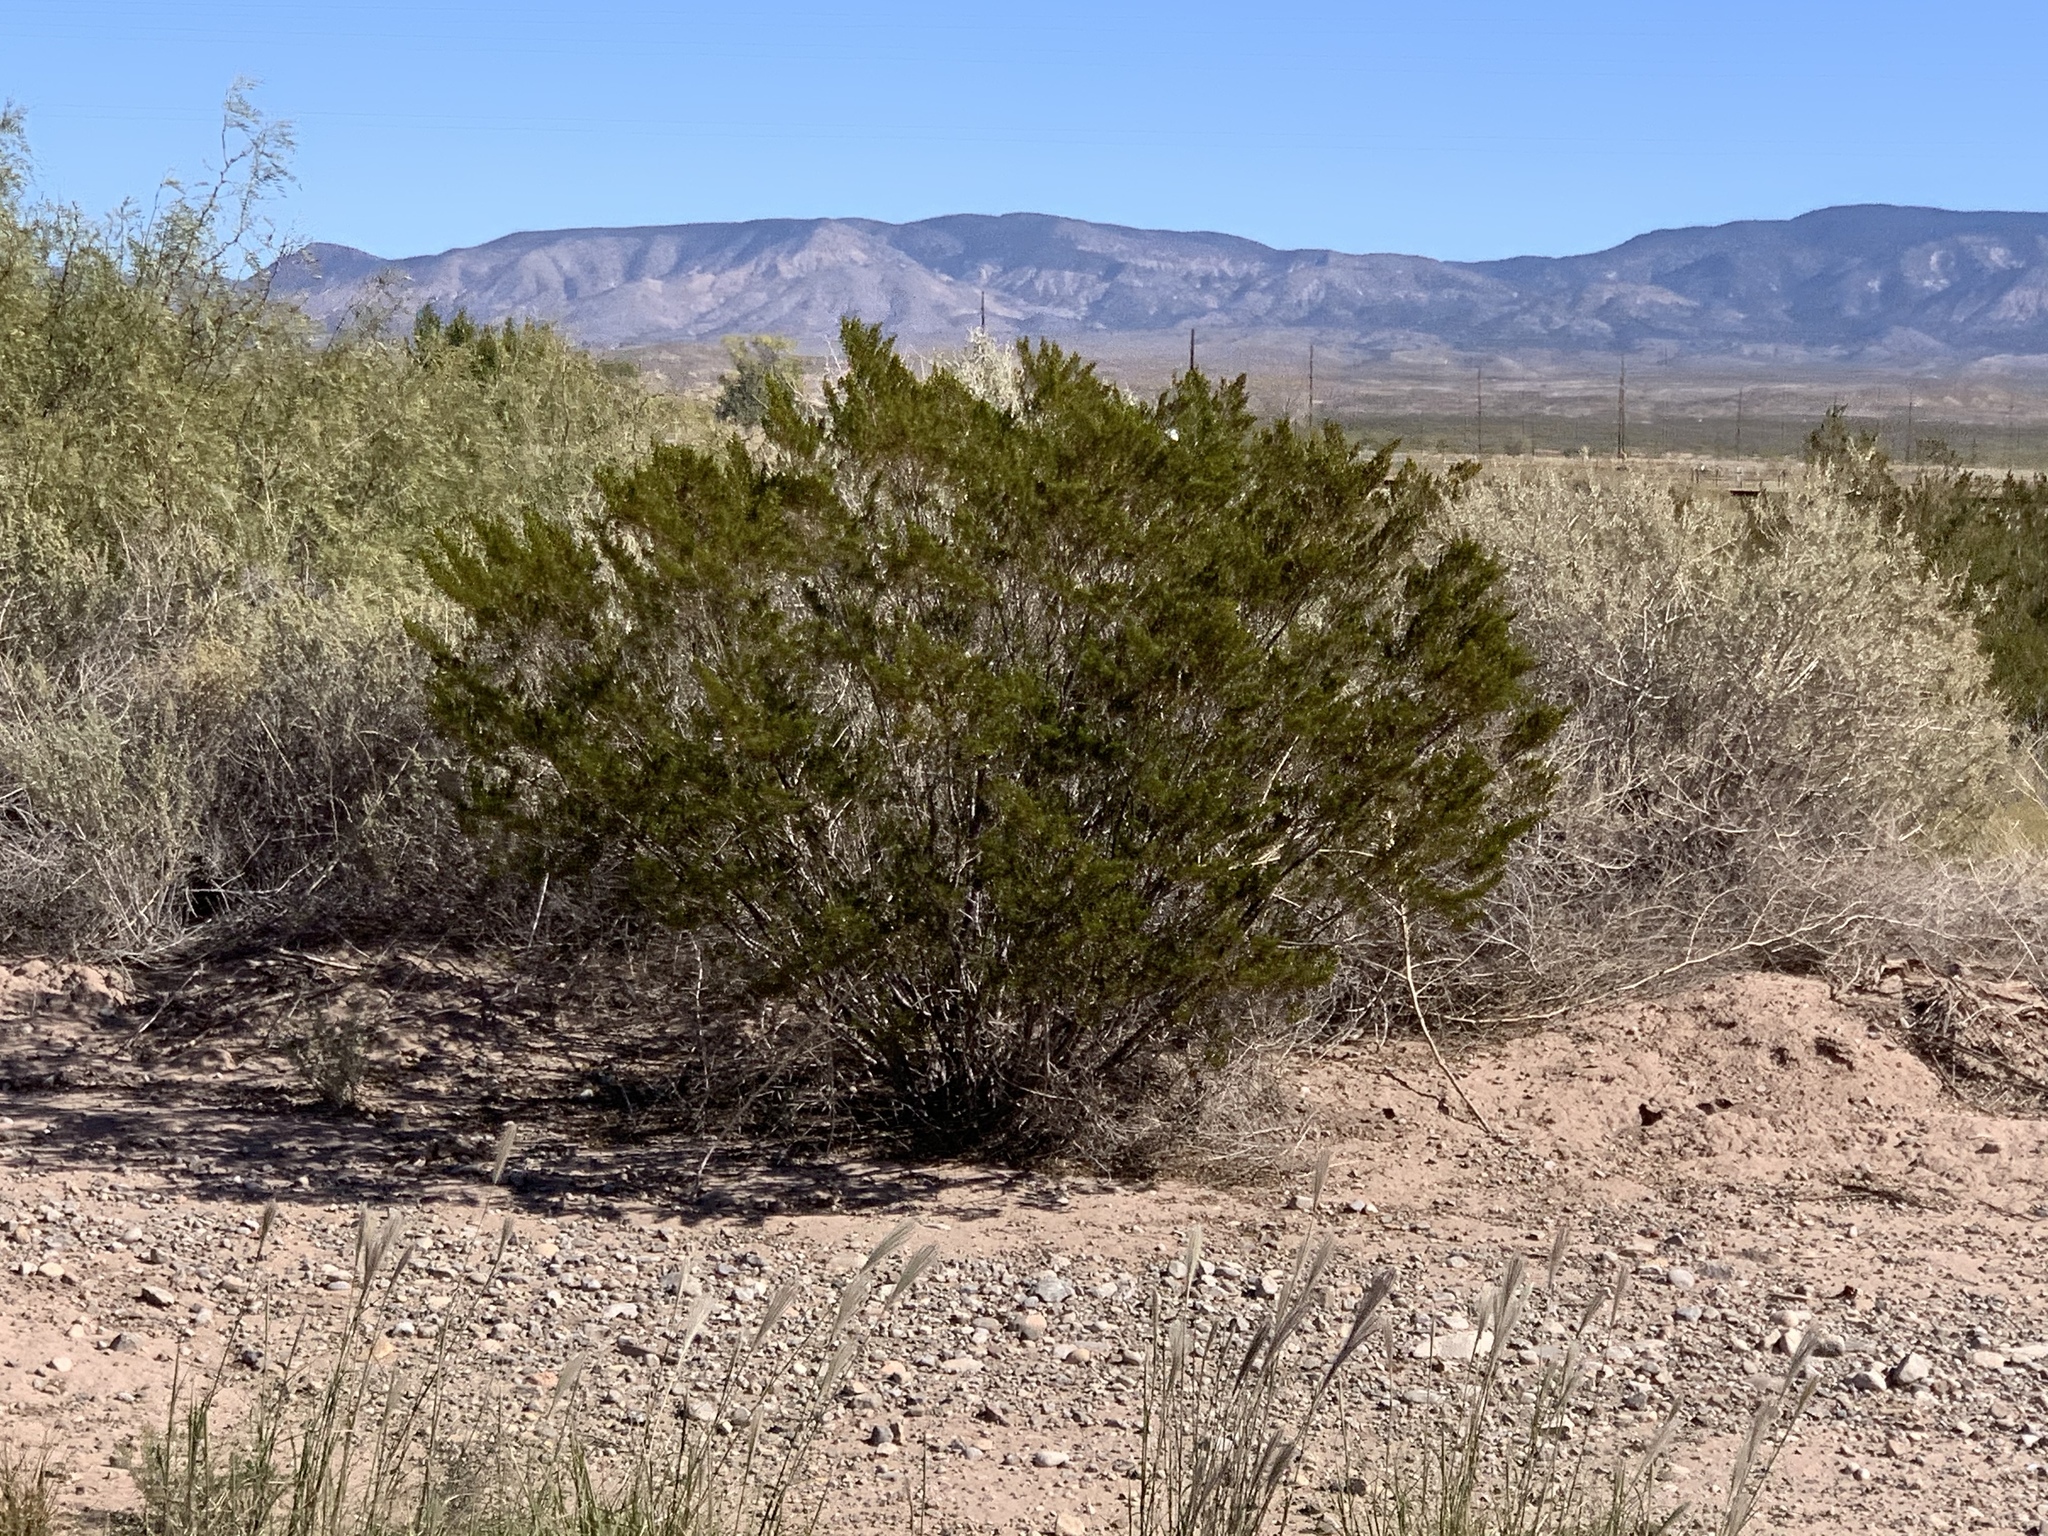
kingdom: Plantae
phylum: Tracheophyta
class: Magnoliopsida
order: Zygophyllales
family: Zygophyllaceae
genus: Larrea
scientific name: Larrea tridentata
